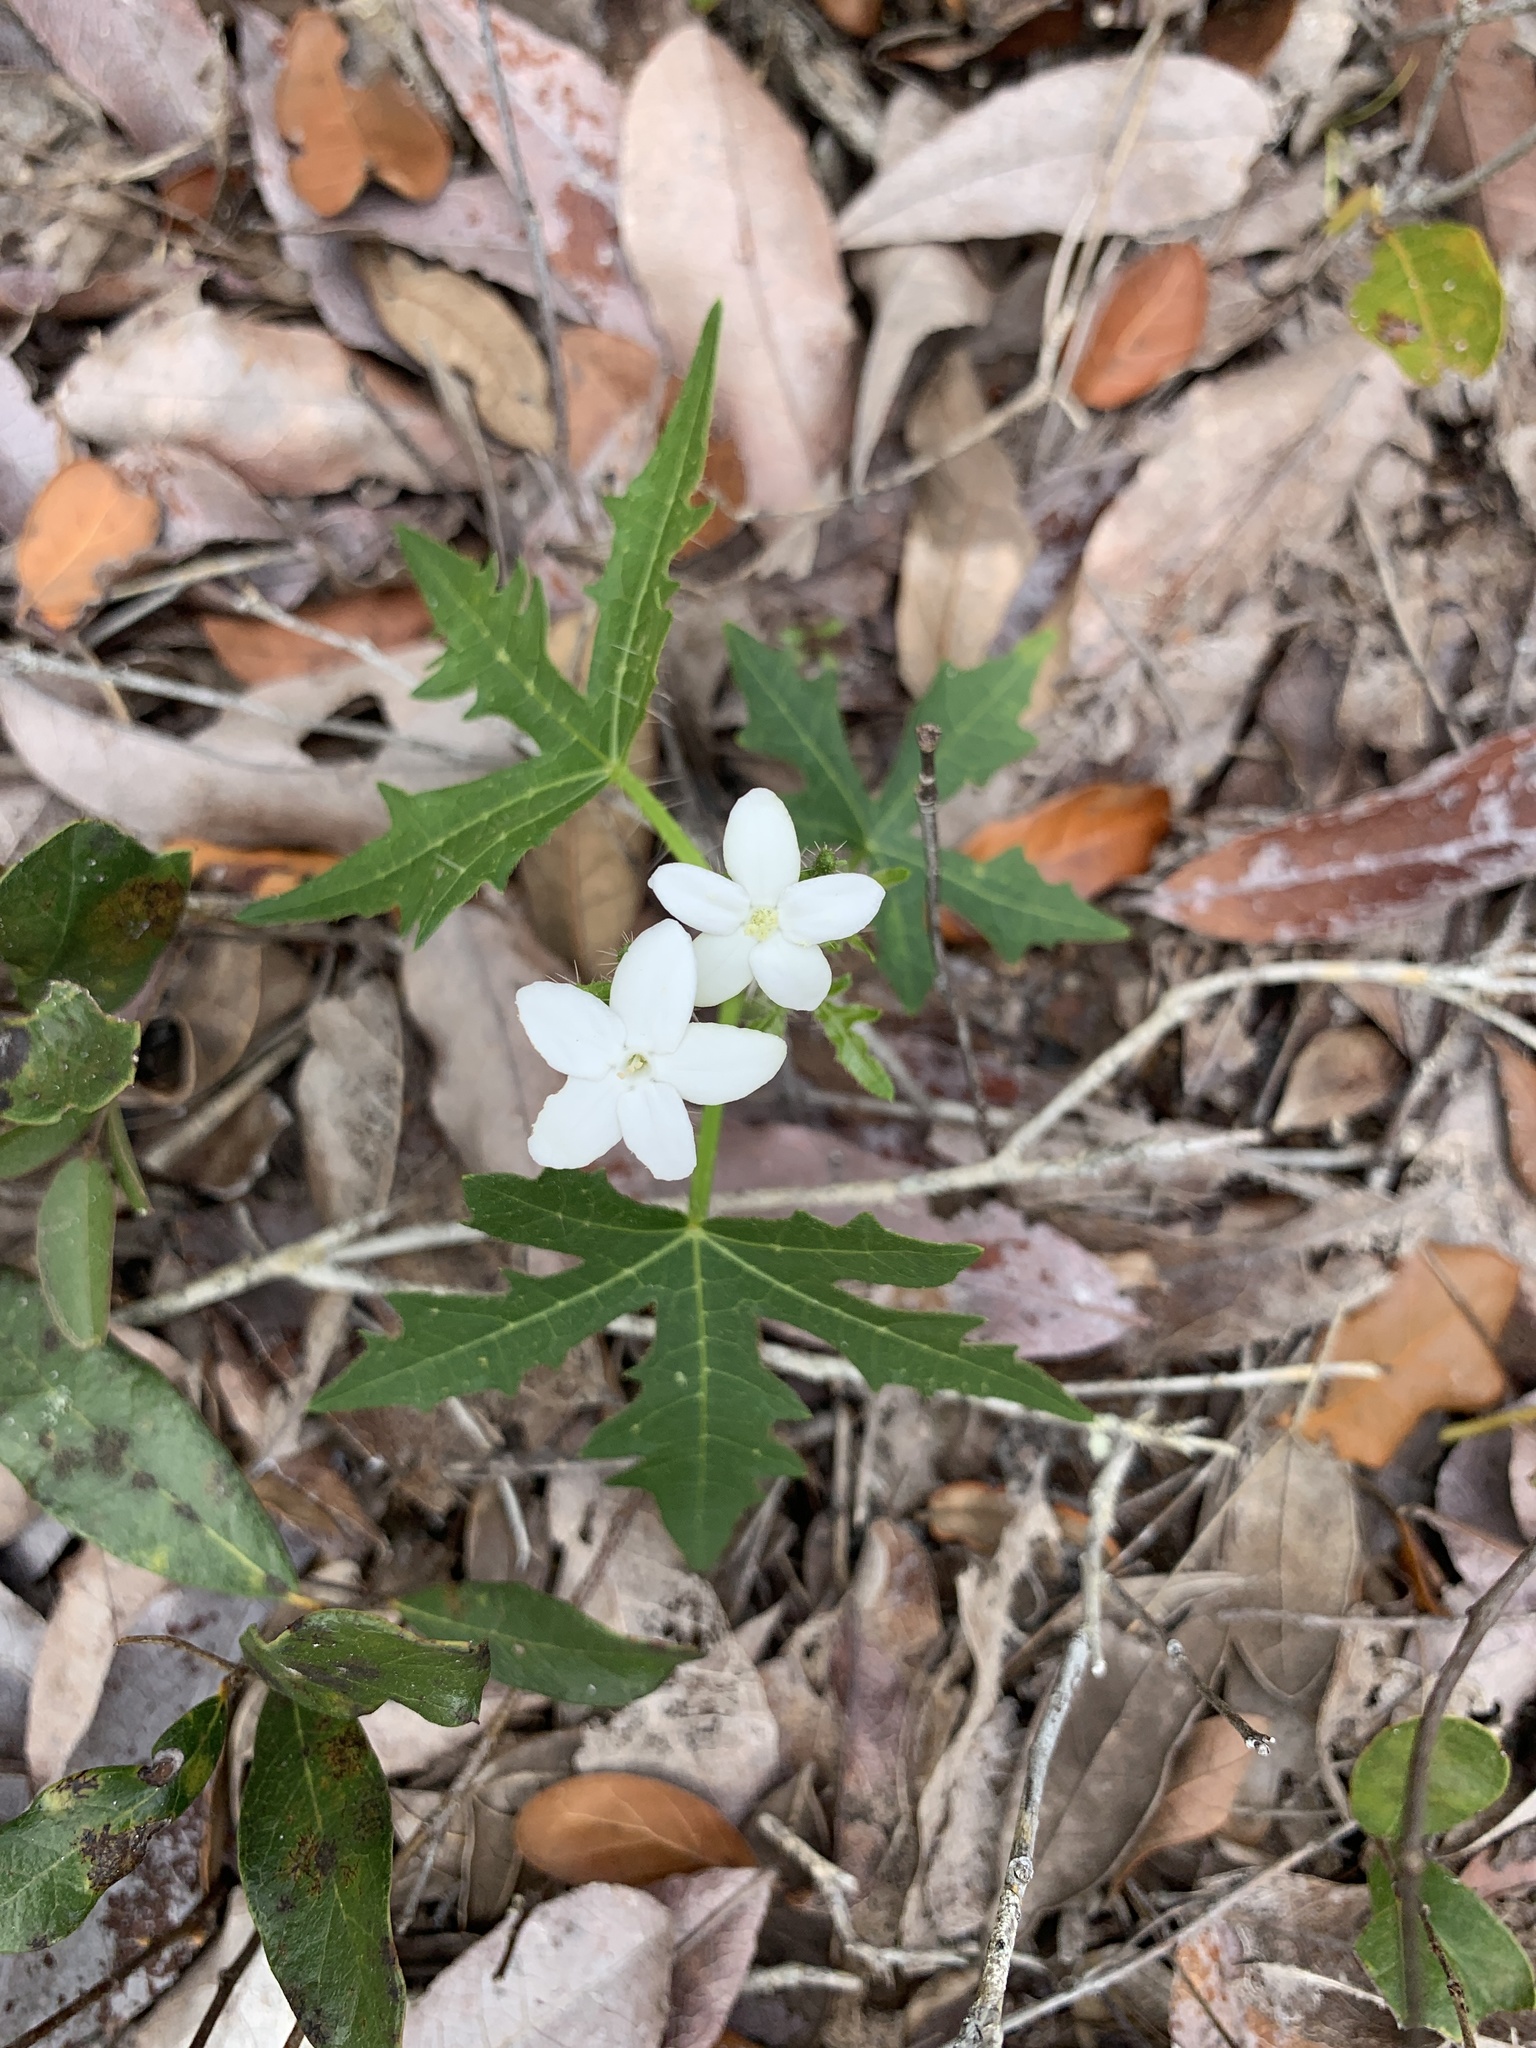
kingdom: Plantae
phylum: Tracheophyta
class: Magnoliopsida
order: Malpighiales
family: Euphorbiaceae
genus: Cnidoscolus
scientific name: Cnidoscolus stimulosus
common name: Bull-nettle
